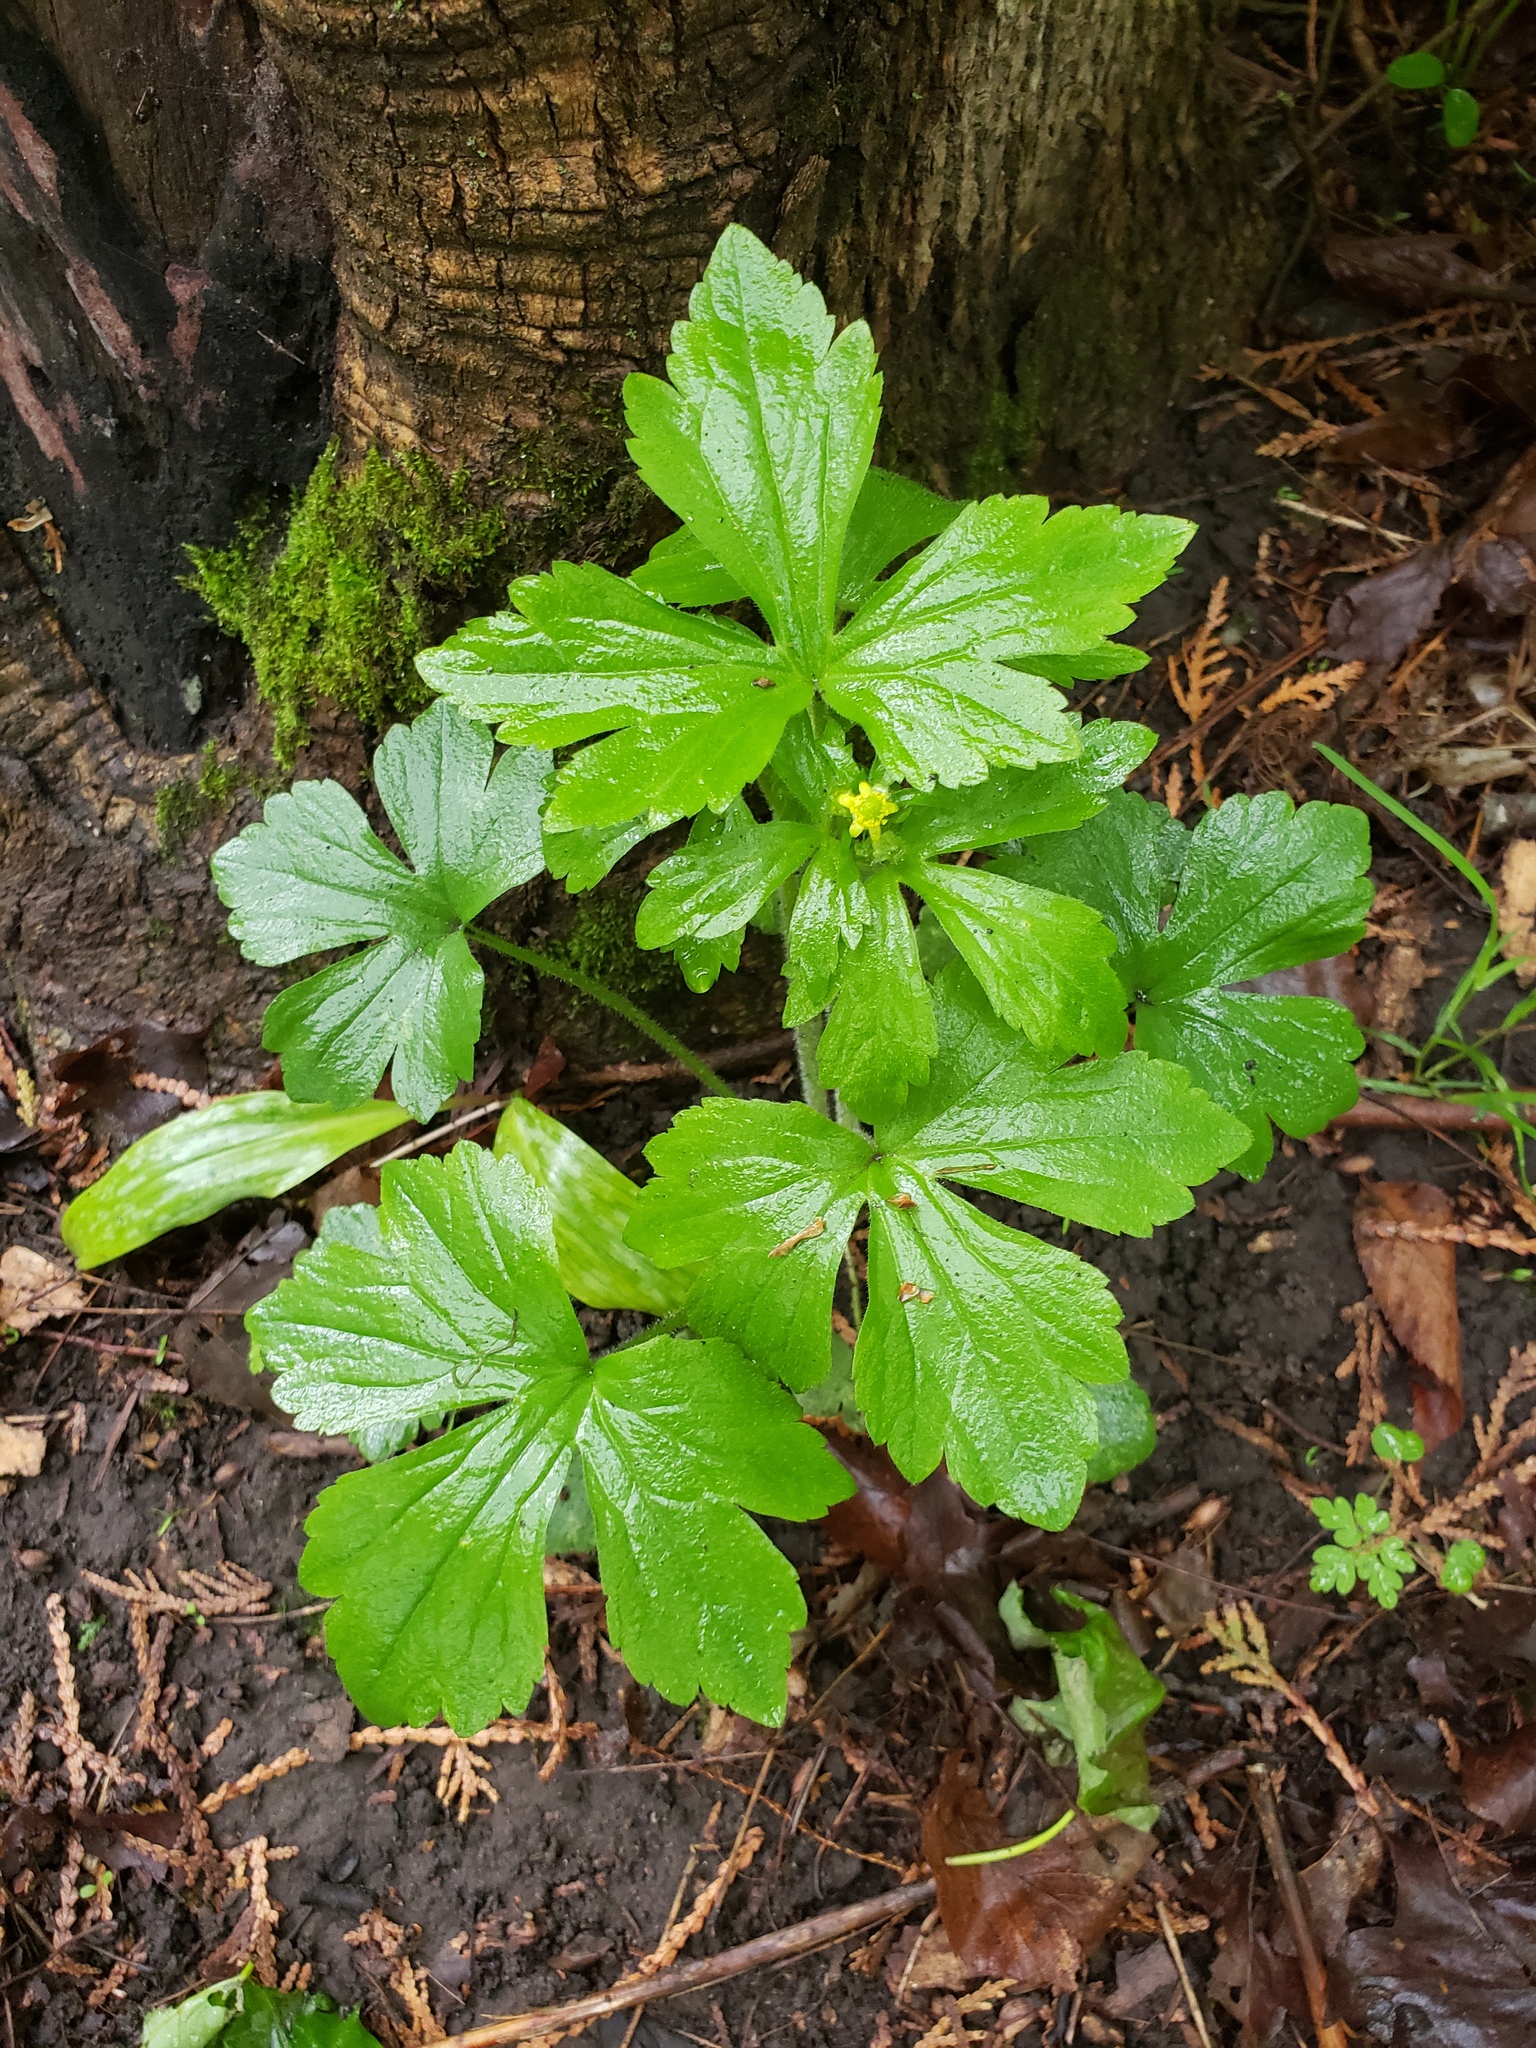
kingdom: Plantae
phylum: Tracheophyta
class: Magnoliopsida
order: Ranunculales
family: Ranunculaceae
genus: Ranunculus
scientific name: Ranunculus recurvatus
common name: Blisterwort
